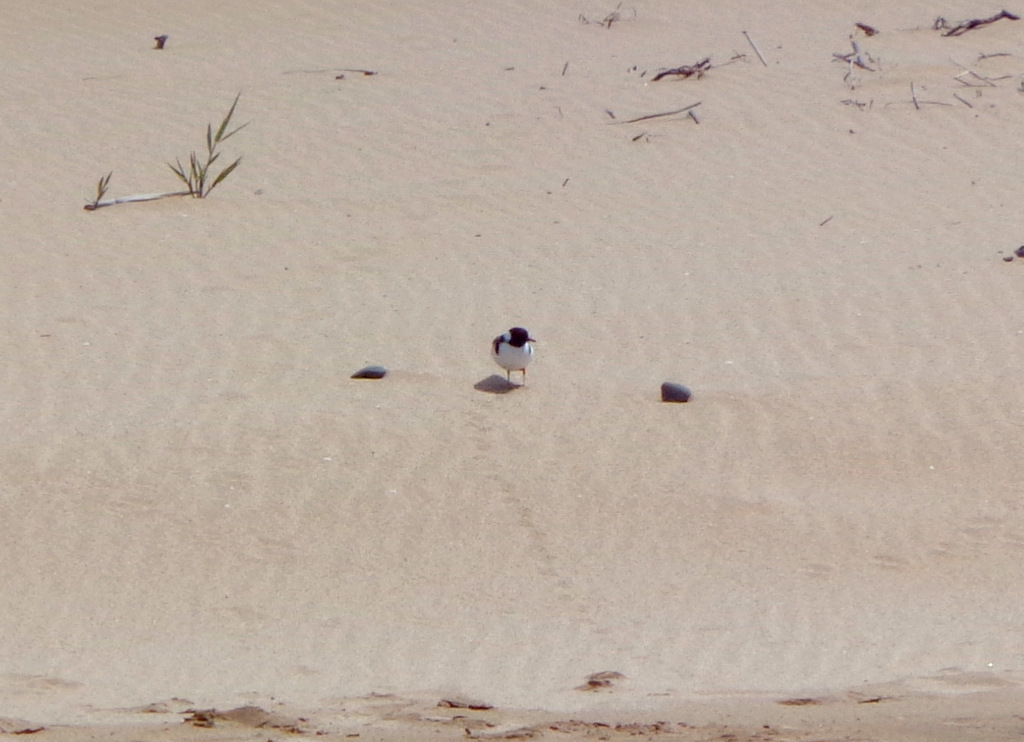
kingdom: Animalia
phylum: Chordata
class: Aves
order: Charadriiformes
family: Charadriidae
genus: Thinornis
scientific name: Thinornis cucullatus
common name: Hooded dotterel
